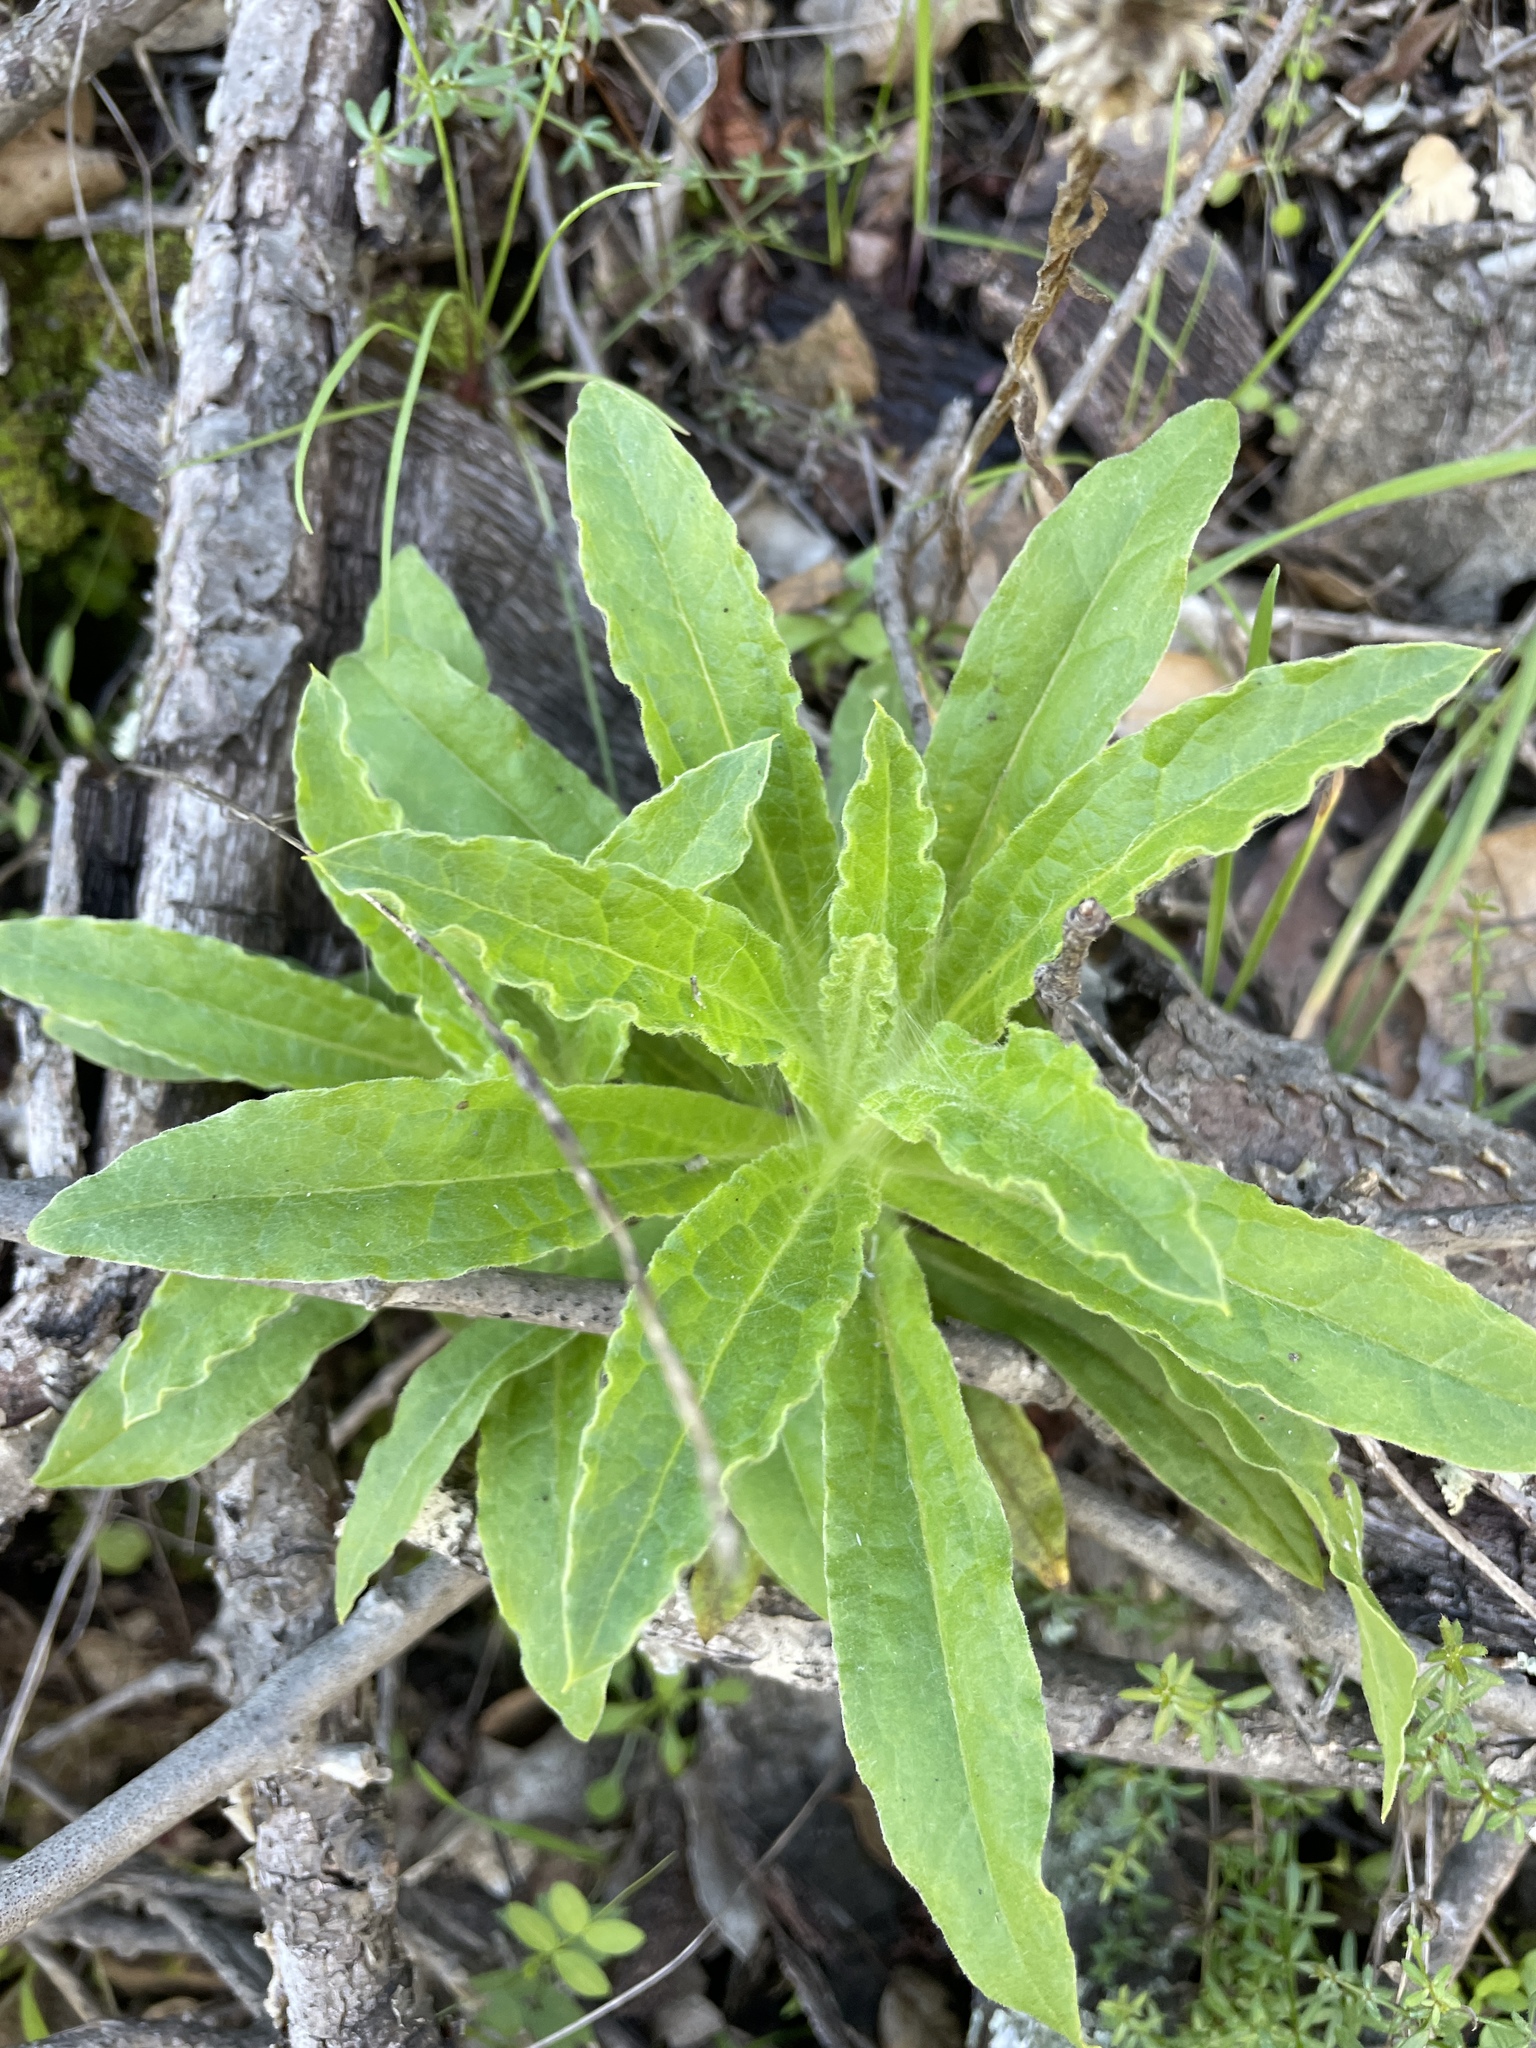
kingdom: Plantae
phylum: Tracheophyta
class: Magnoliopsida
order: Asterales
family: Asteraceae
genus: Pseudognaphalium
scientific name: Pseudognaphalium californicum
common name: California rabbit-tobacco
